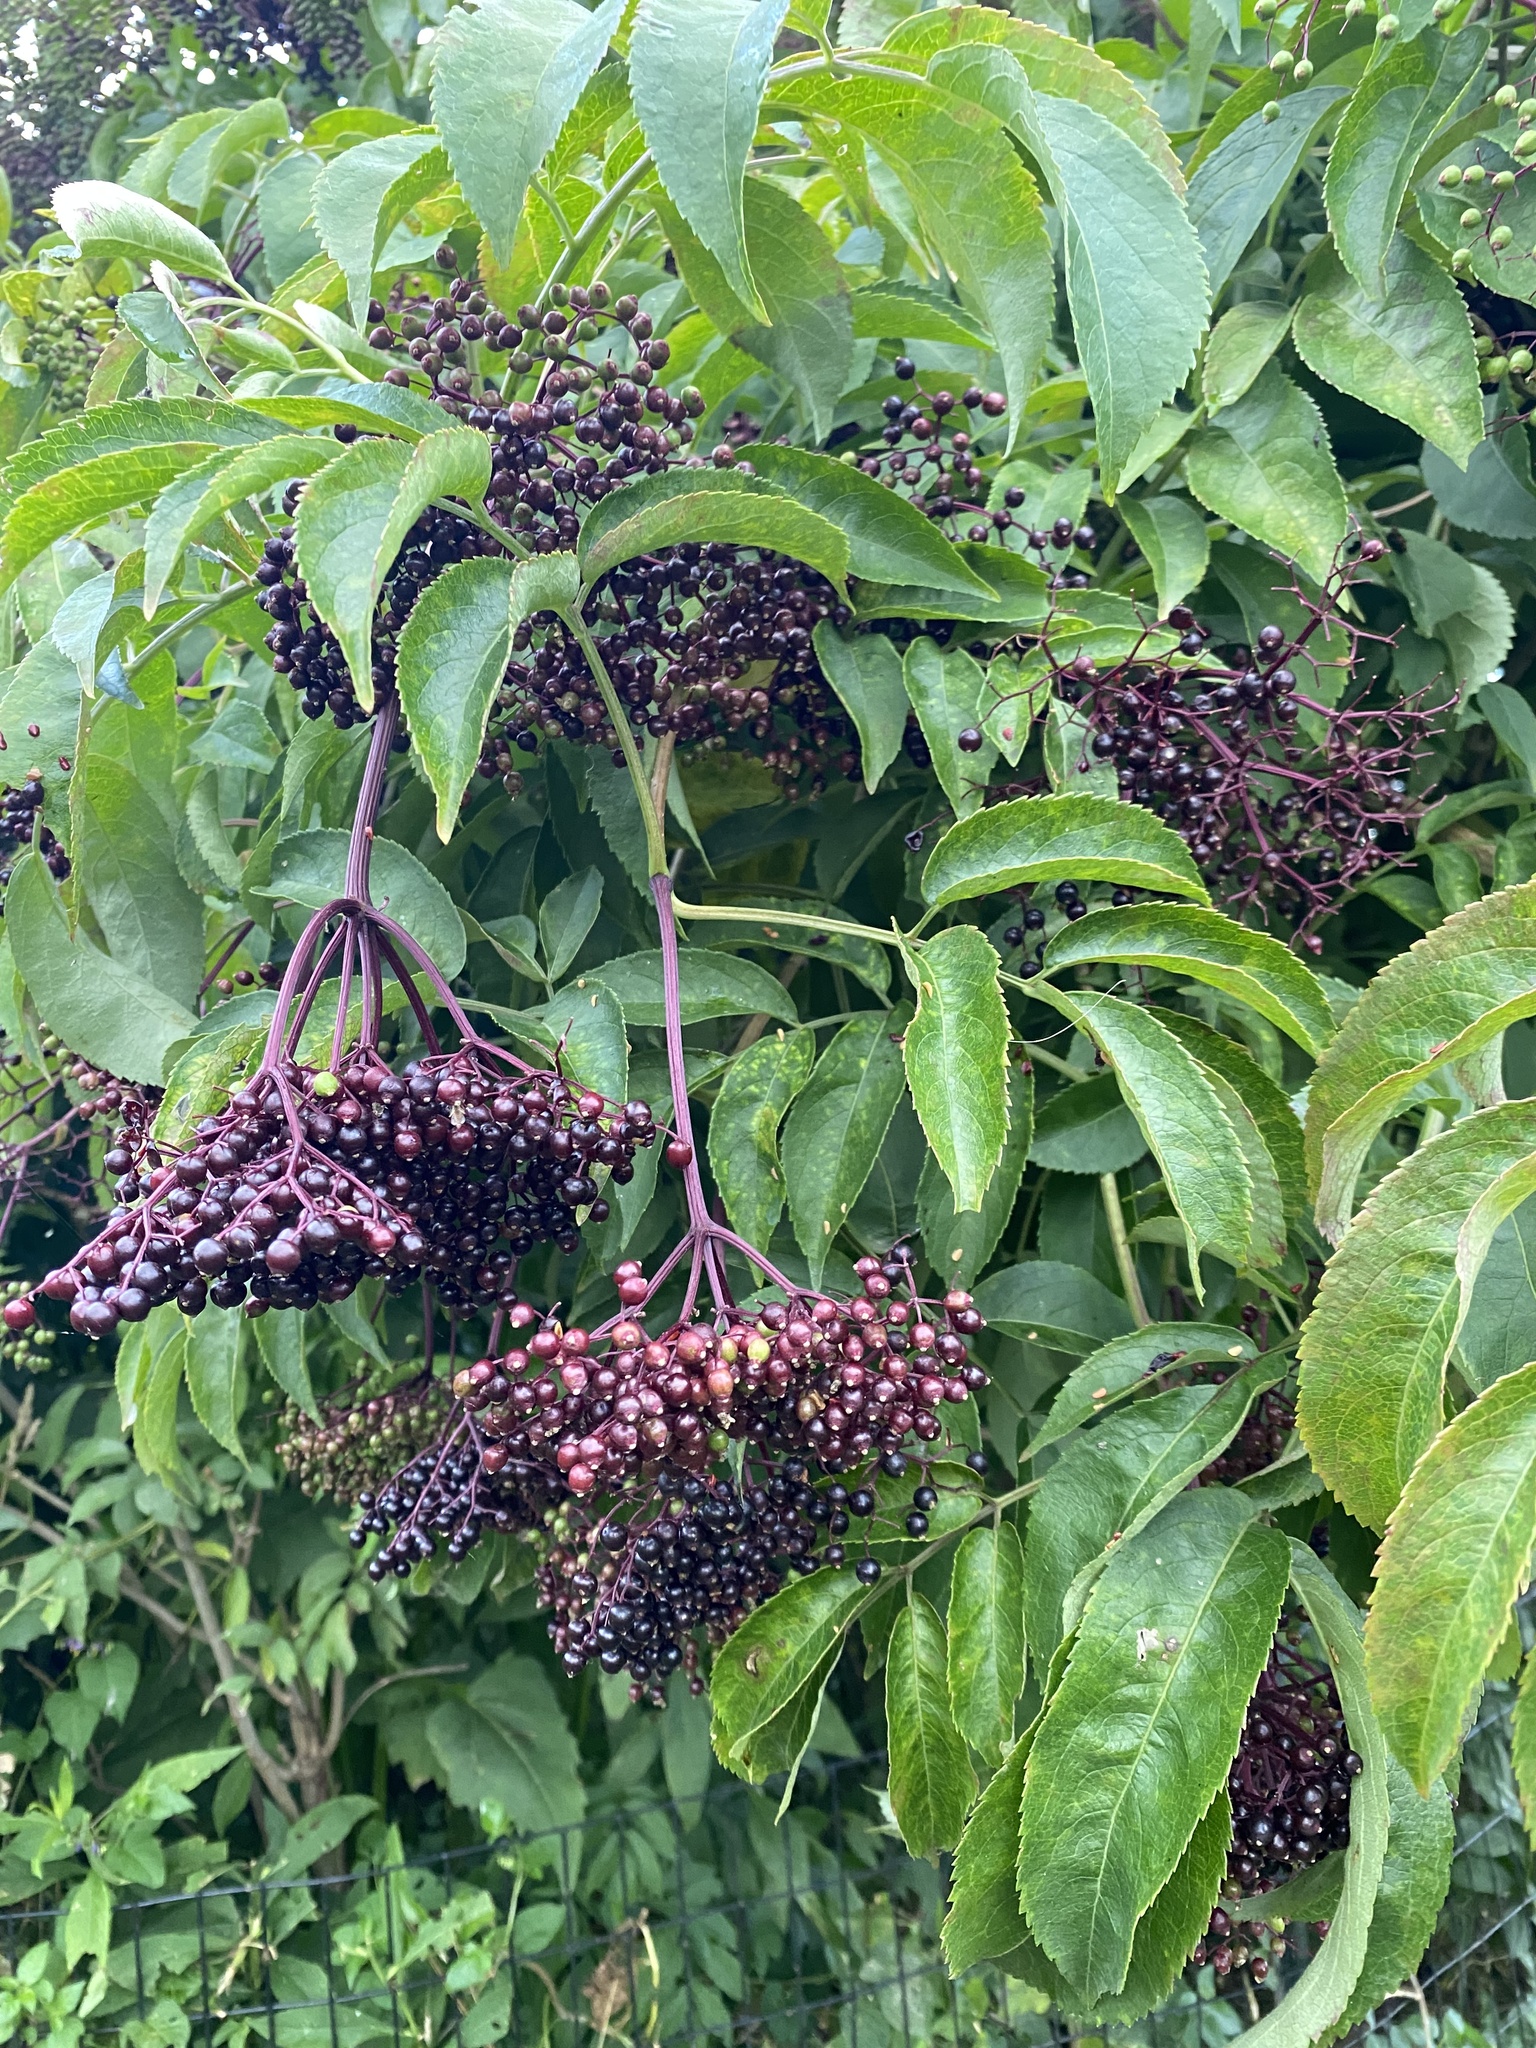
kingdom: Plantae
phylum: Tracheophyta
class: Magnoliopsida
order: Dipsacales
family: Viburnaceae
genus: Sambucus
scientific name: Sambucus canadensis
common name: American elder
